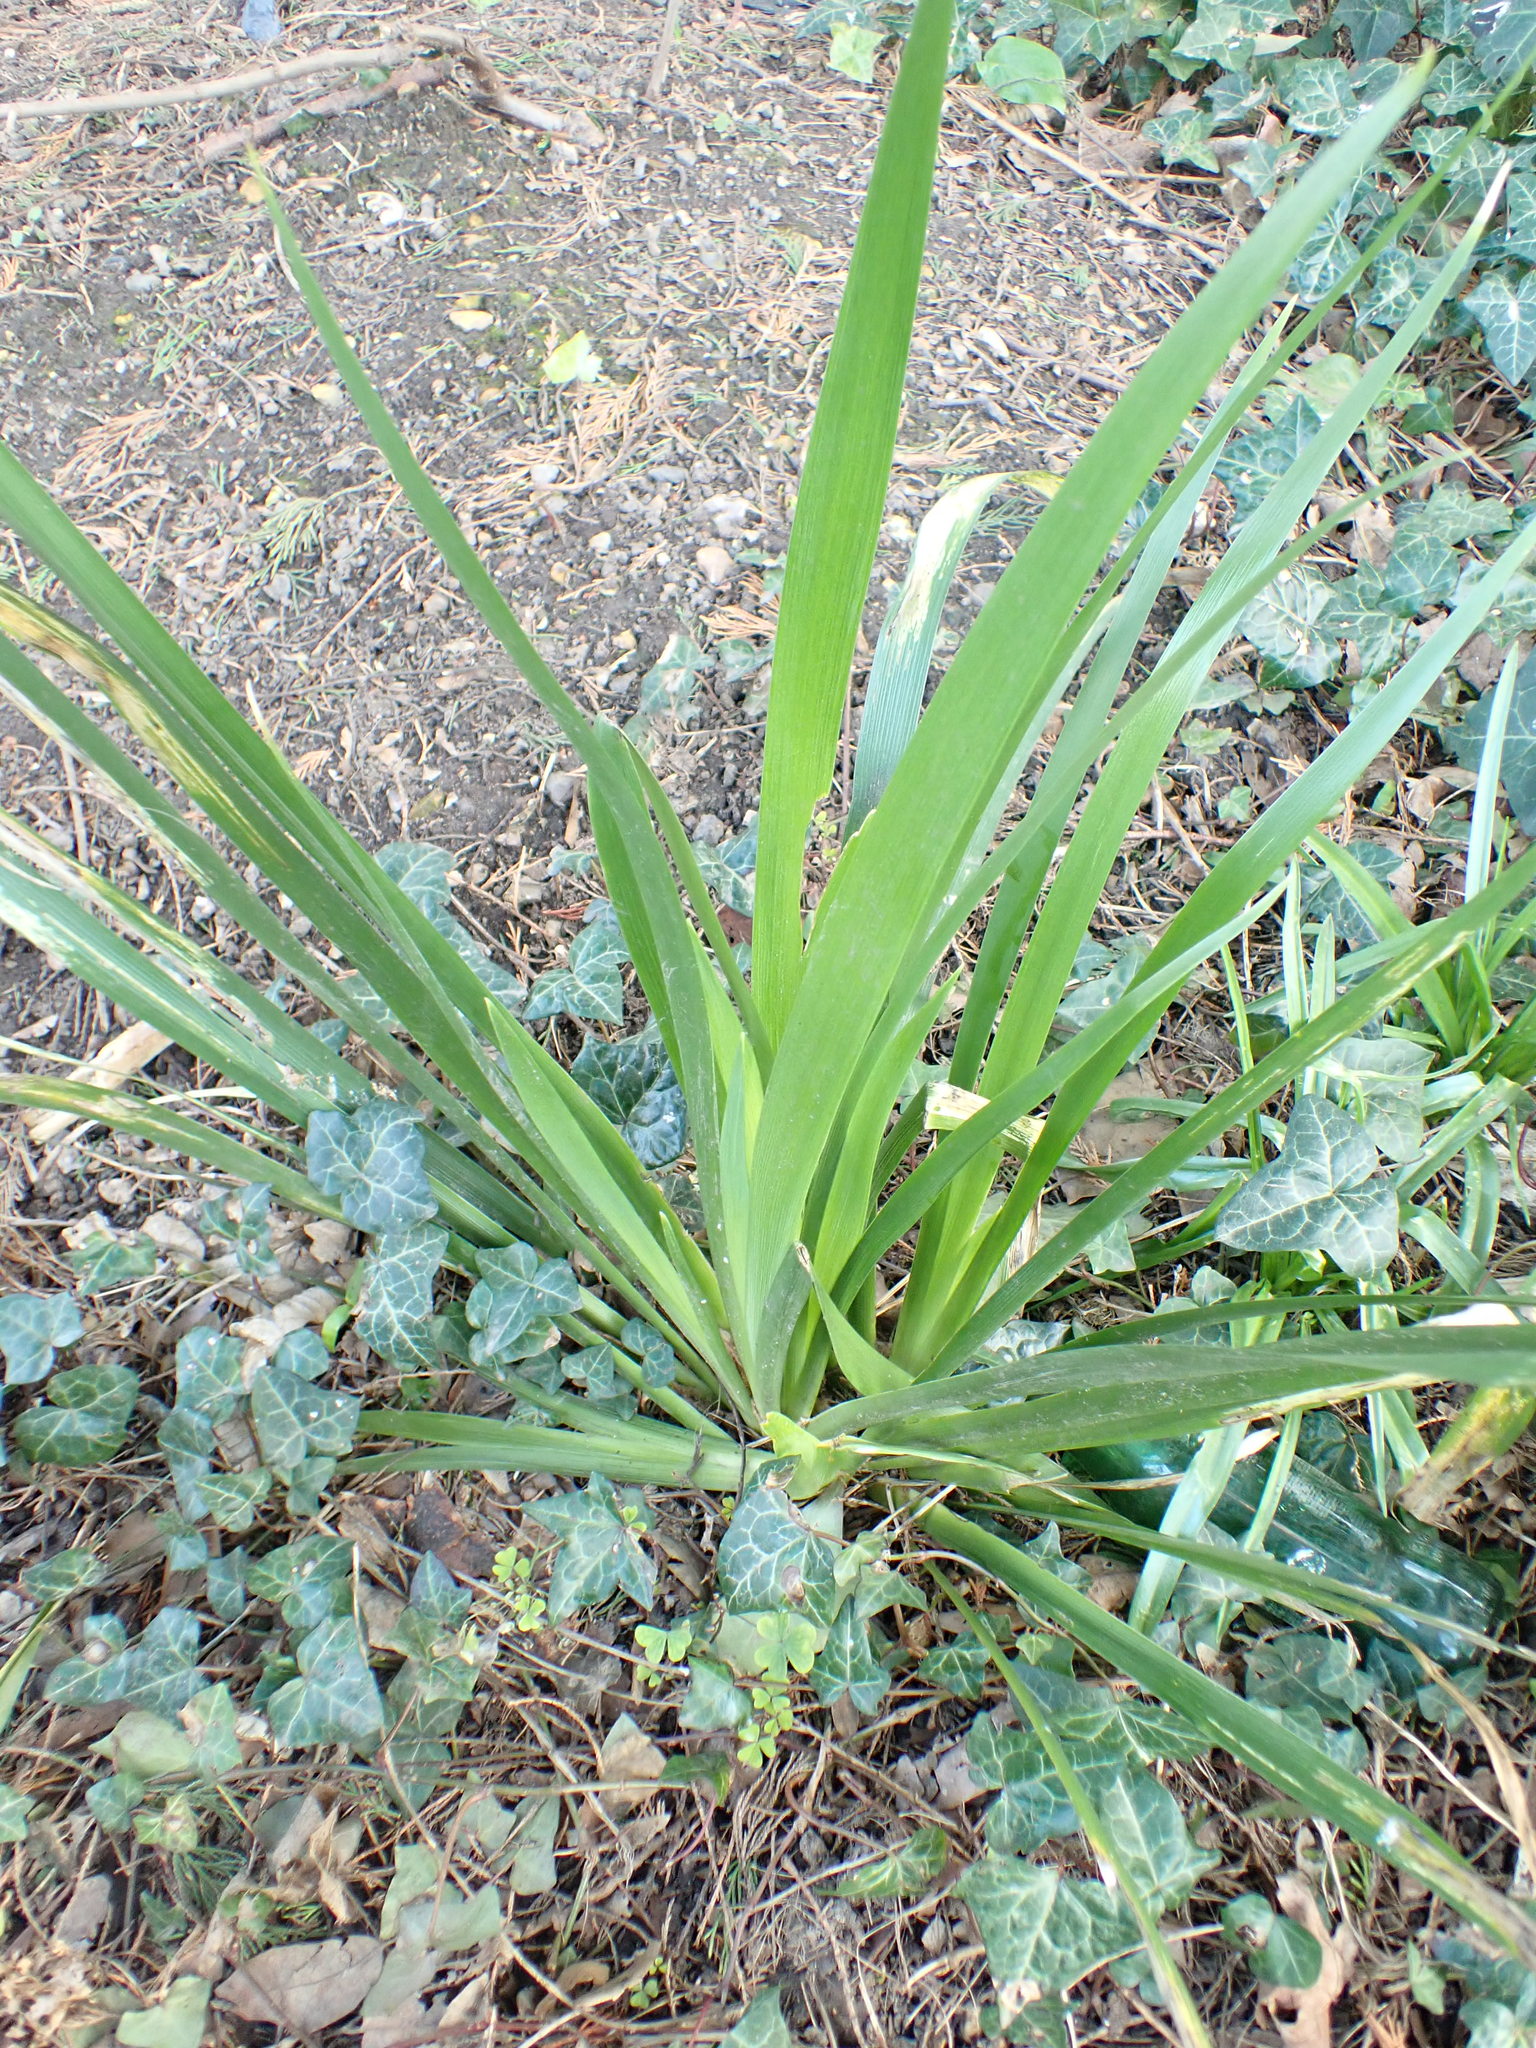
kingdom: Plantae
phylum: Tracheophyta
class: Liliopsida
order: Asparagales
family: Iridaceae
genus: Iris
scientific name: Iris foetidissima
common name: Stinking iris
